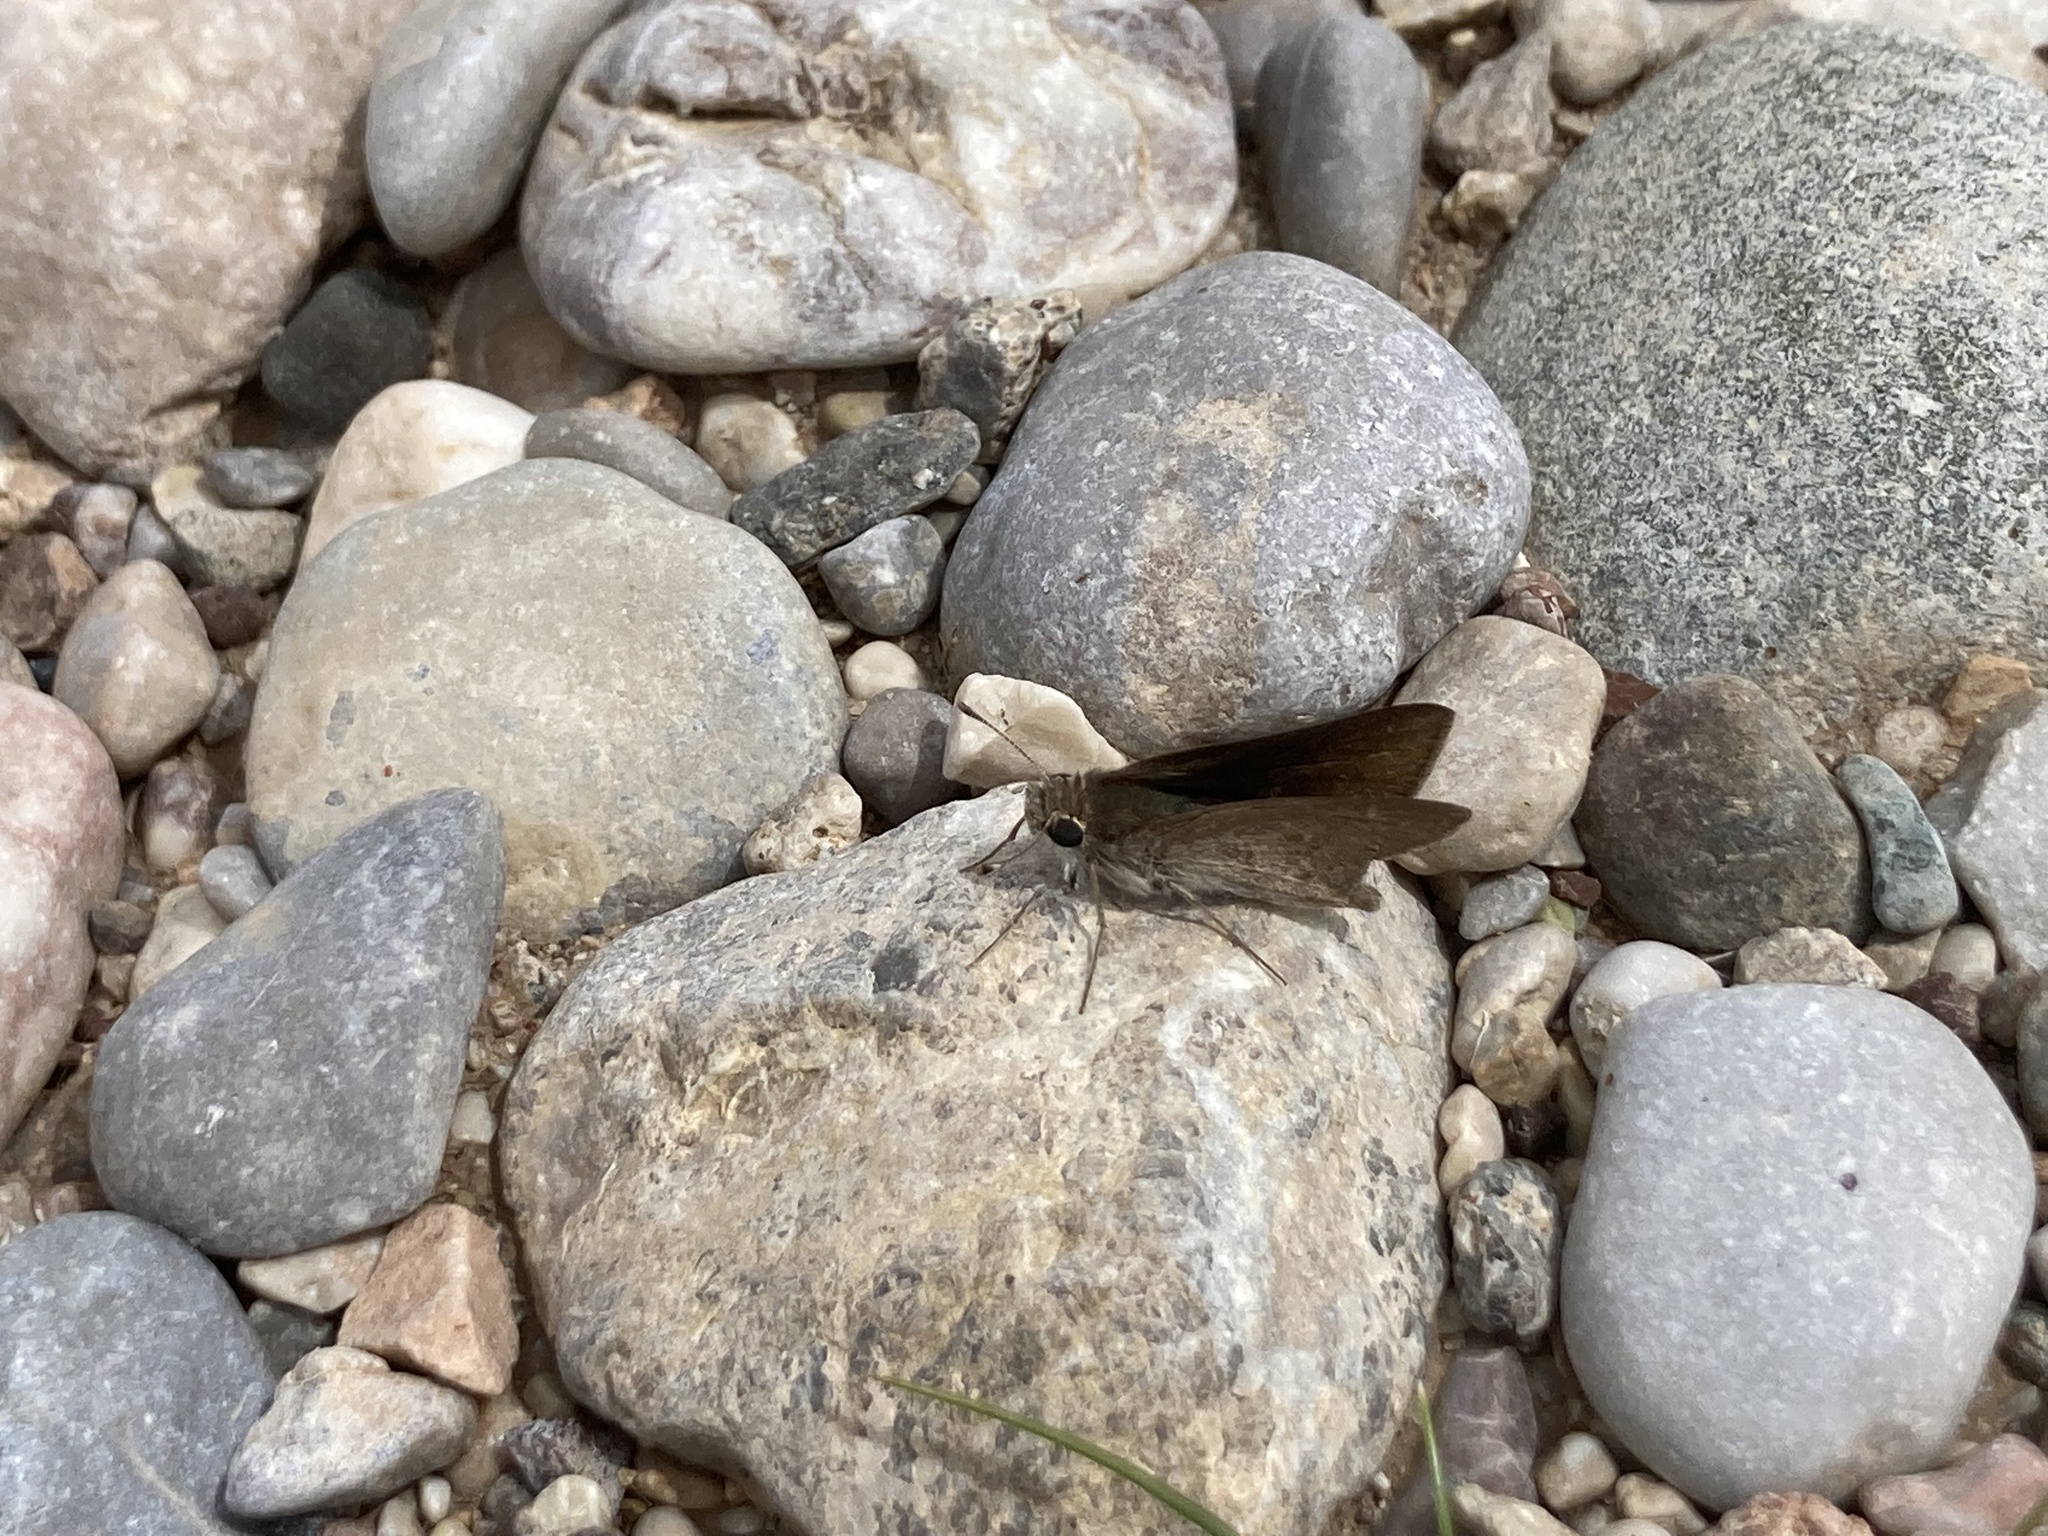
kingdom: Animalia
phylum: Arthropoda
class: Insecta
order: Lepidoptera
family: Hesperiidae
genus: Gegenes
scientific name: Gegenes pumilio
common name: Pigmy skipper
